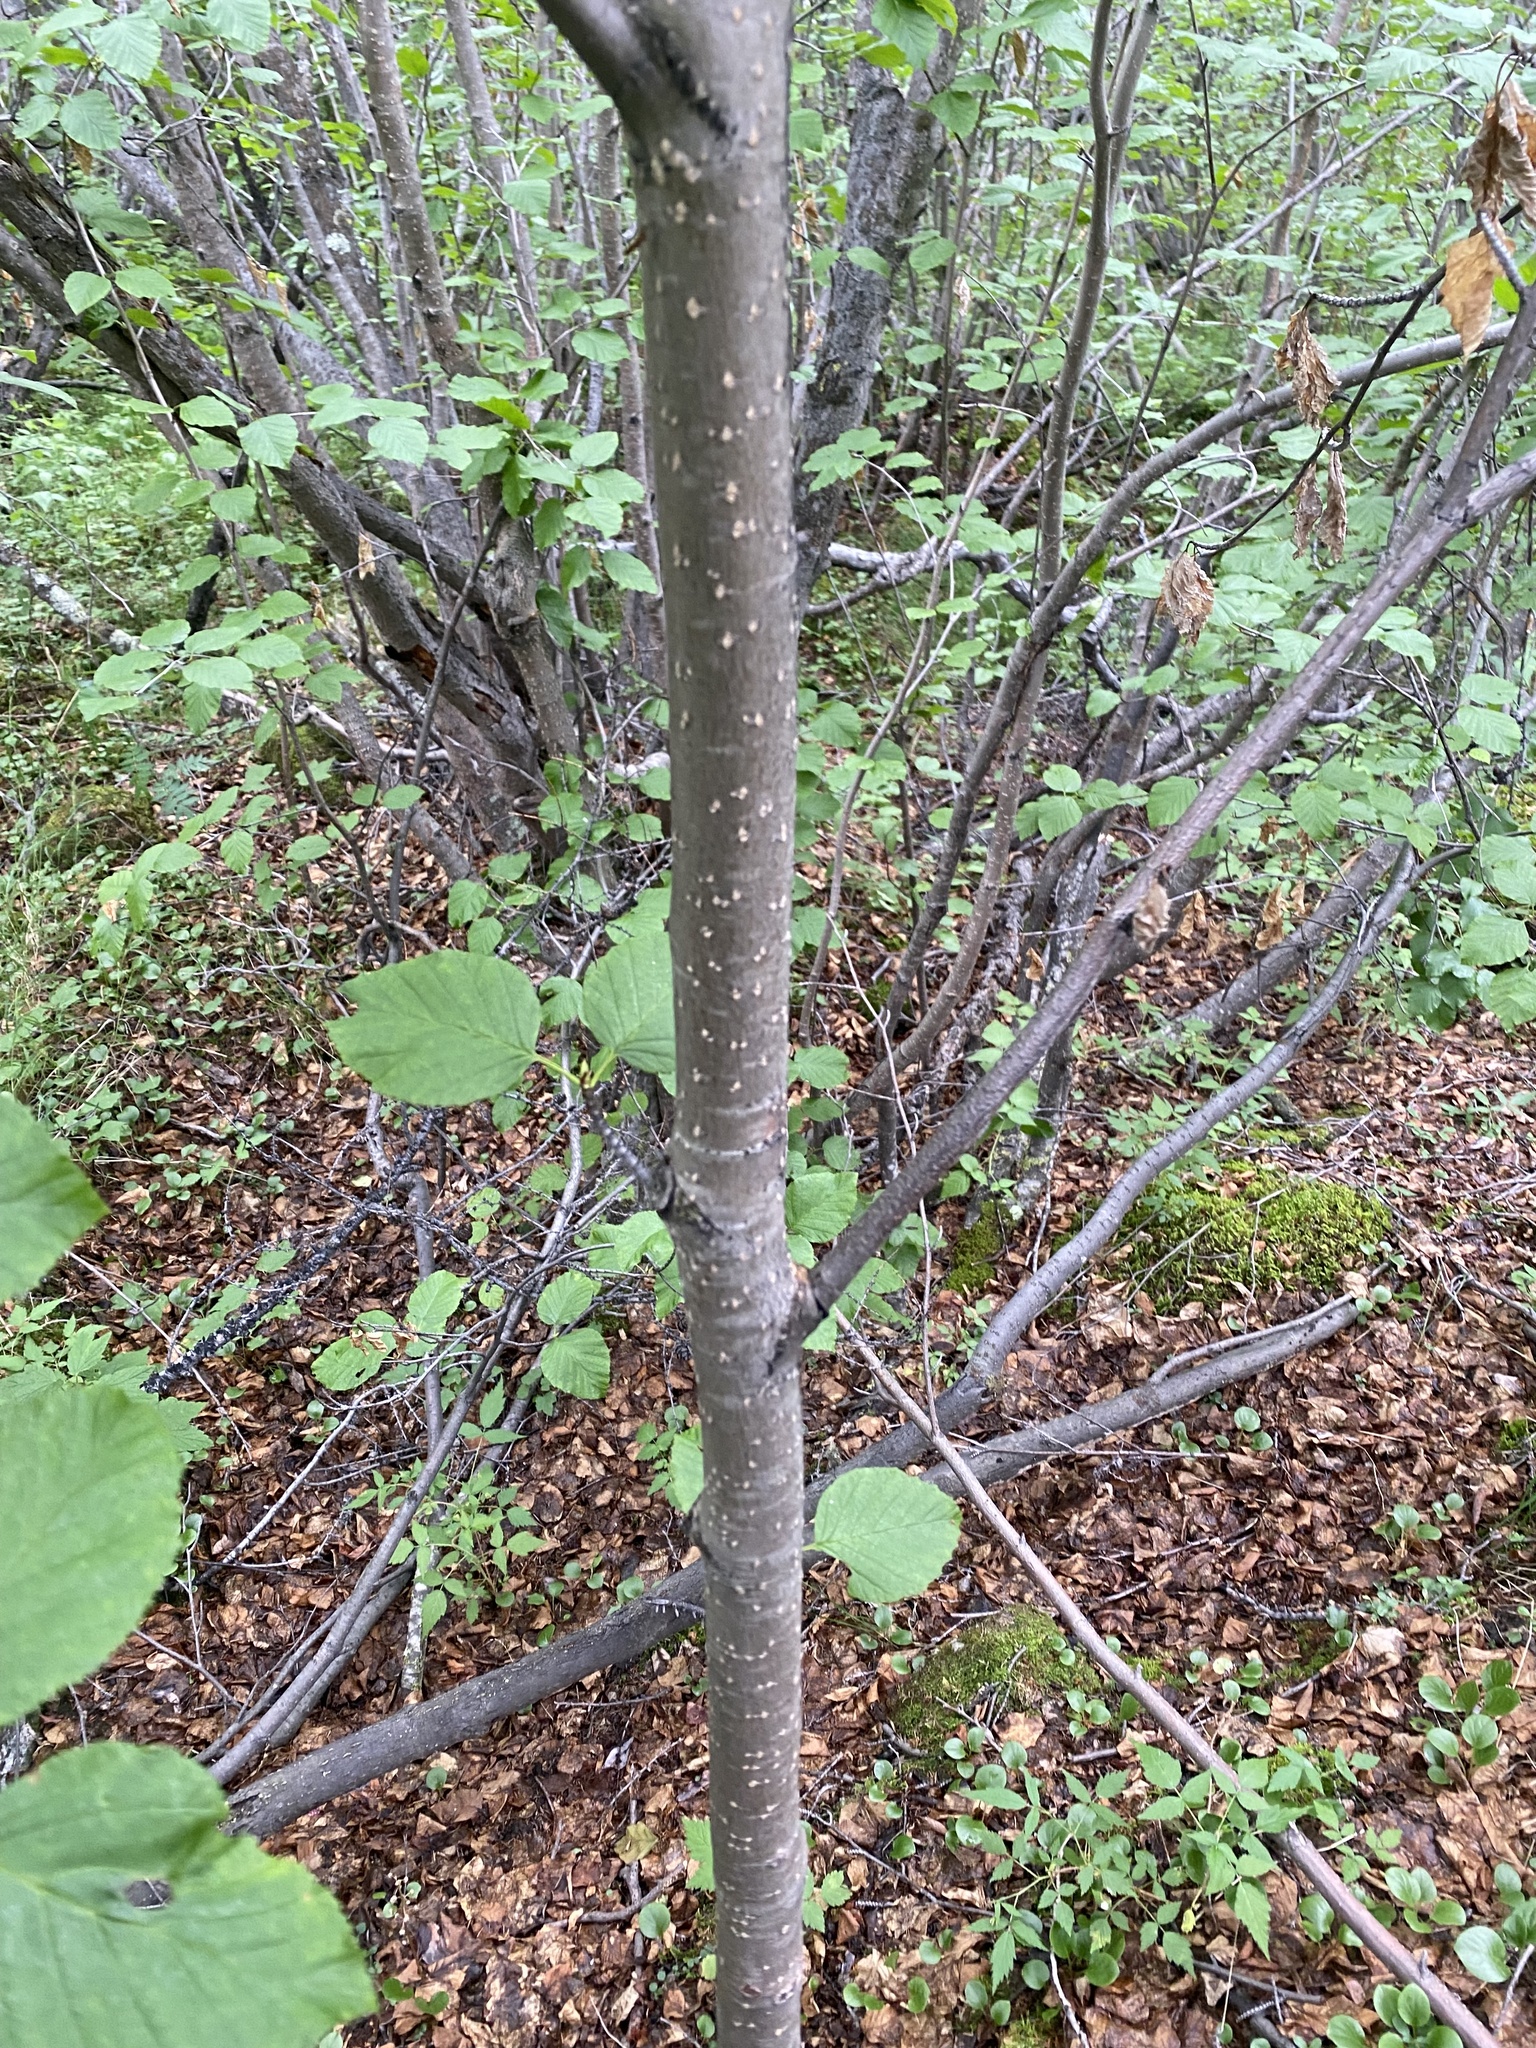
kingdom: Plantae
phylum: Tracheophyta
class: Magnoliopsida
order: Fagales
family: Betulaceae
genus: Alnus
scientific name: Alnus alnobetula
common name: Green alder
